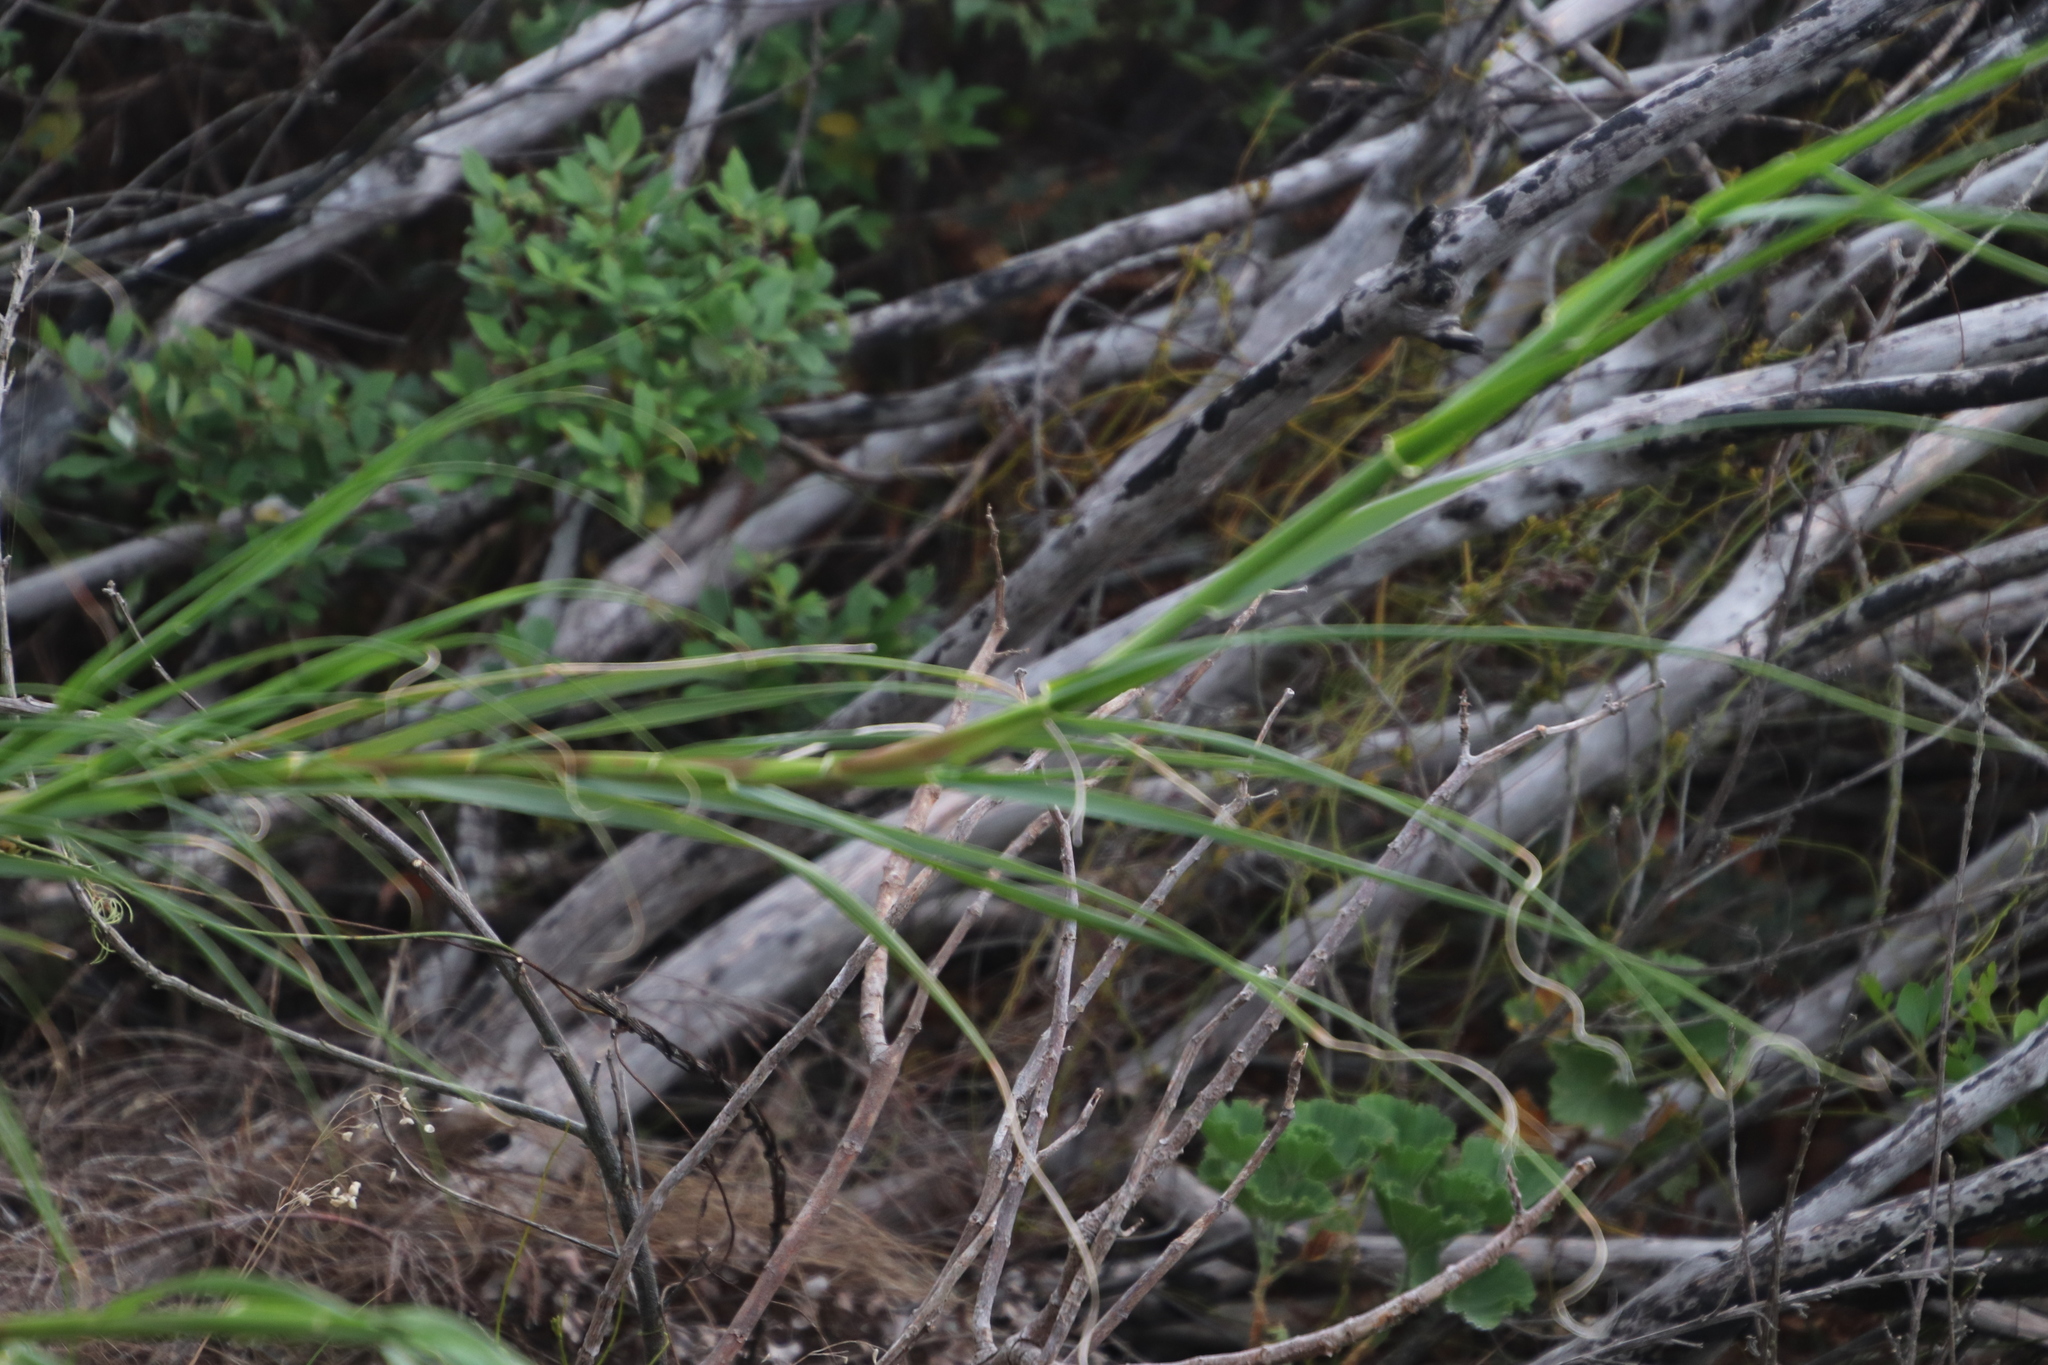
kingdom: Plantae
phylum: Tracheophyta
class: Liliopsida
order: Poales
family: Poaceae
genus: Pseudopentameris
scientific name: Pseudopentameris macrantha
